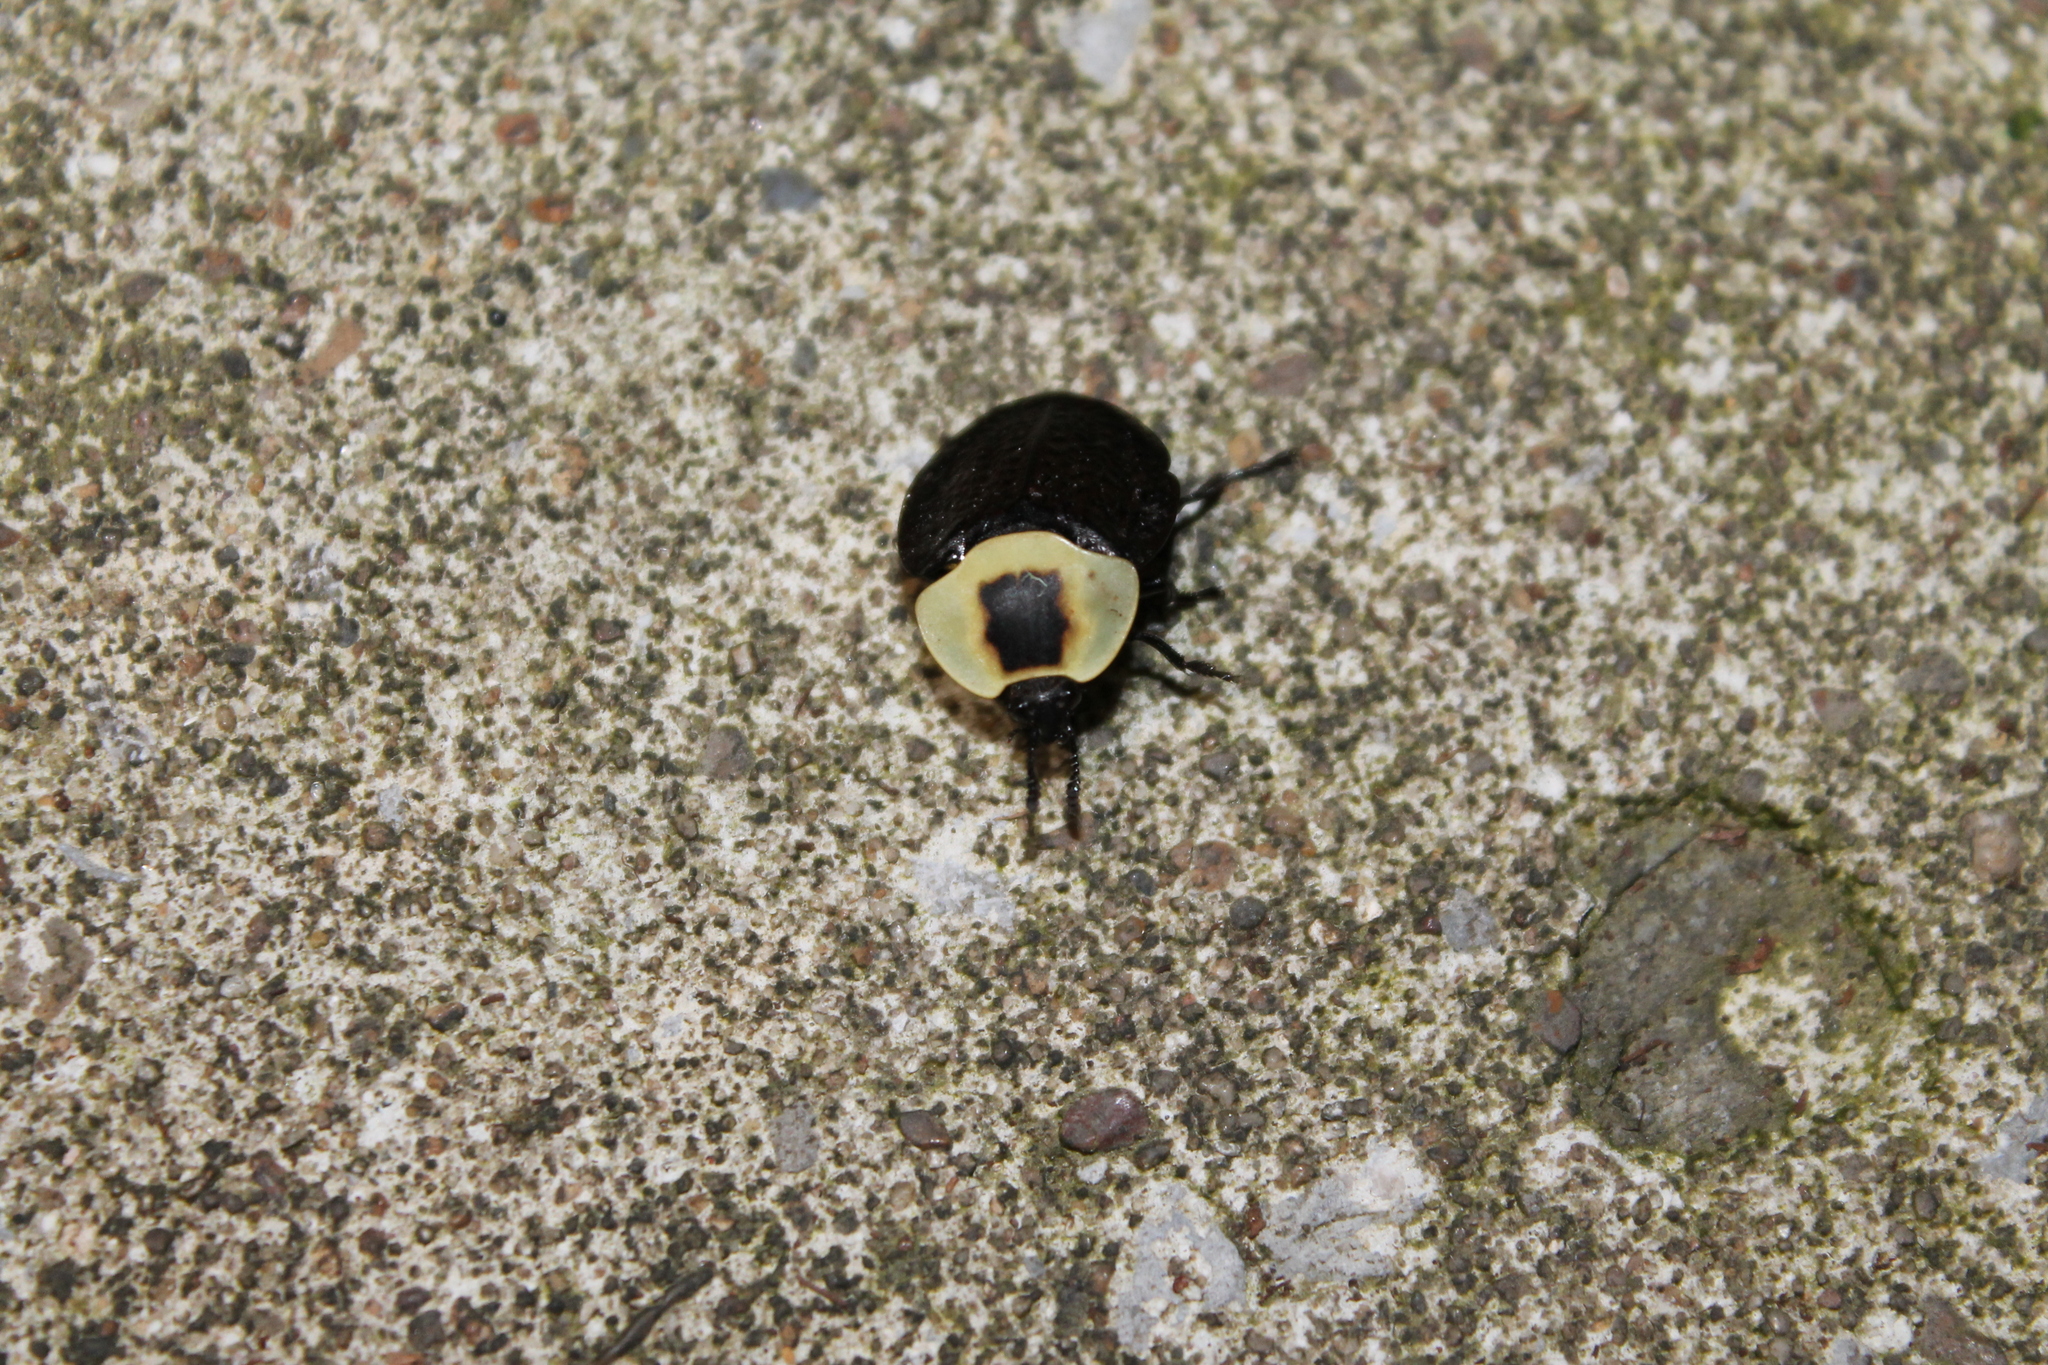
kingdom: Animalia
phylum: Arthropoda
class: Insecta
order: Coleoptera
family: Staphylinidae
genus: Necrophila
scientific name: Necrophila americana
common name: American carrion beetle
